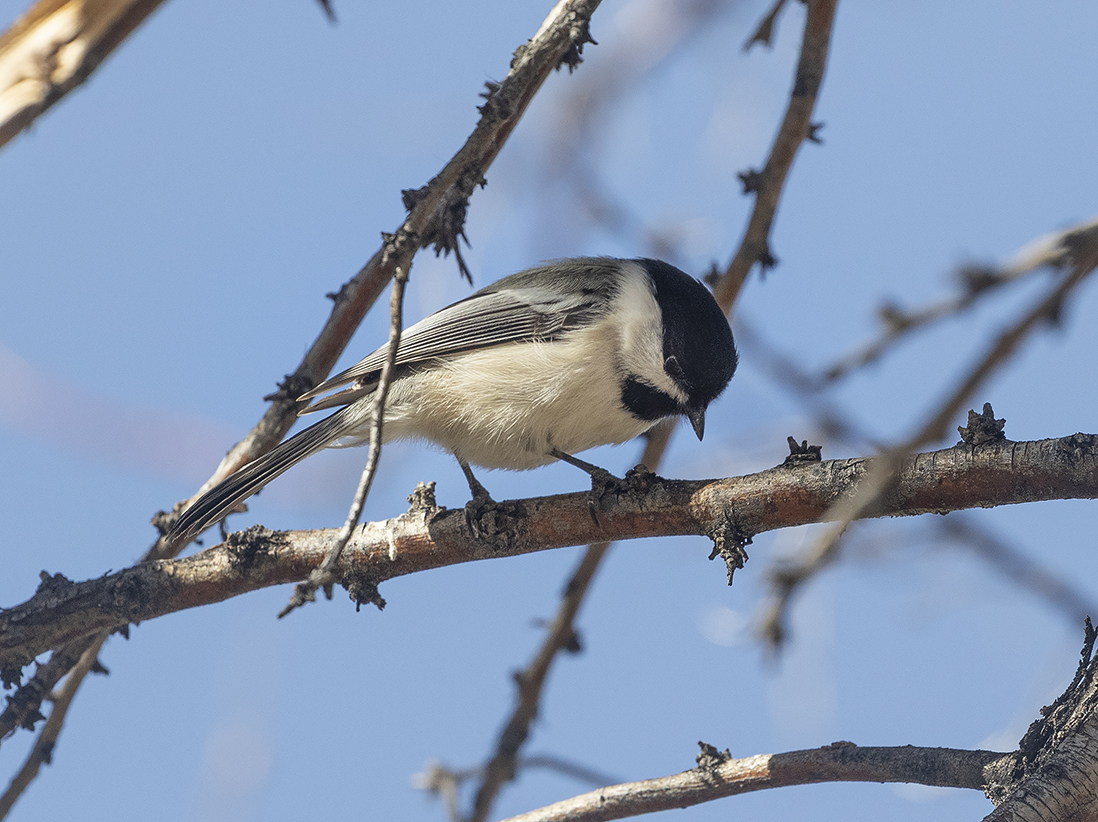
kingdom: Animalia
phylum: Chordata
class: Aves
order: Passeriformes
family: Paridae
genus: Poecile
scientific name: Poecile atricapillus
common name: Black-capped chickadee
